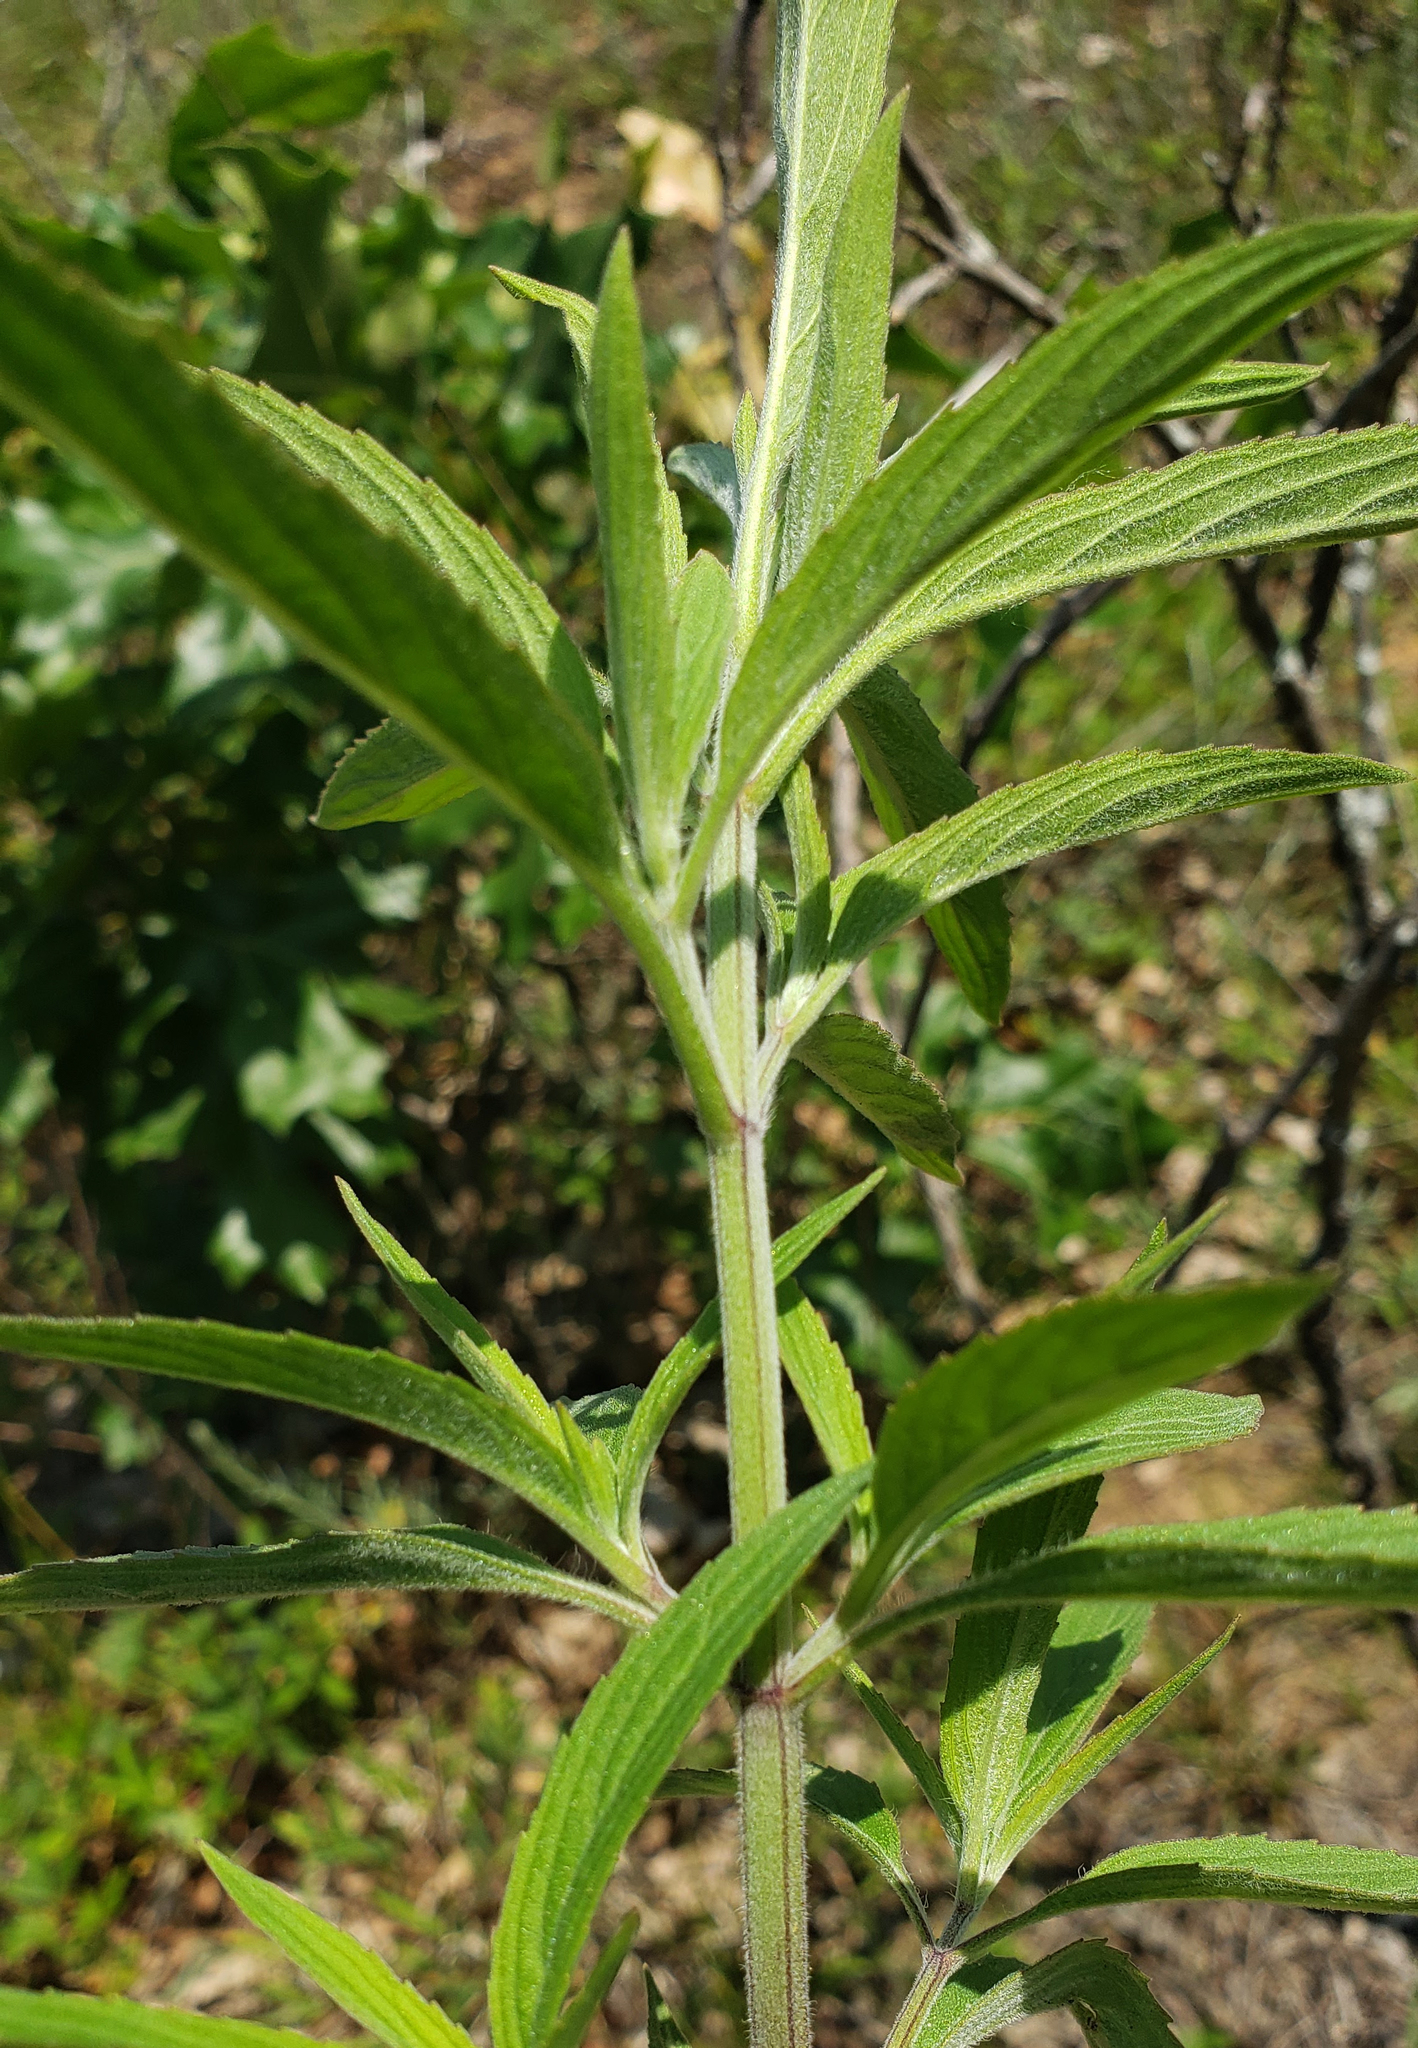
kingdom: Plantae
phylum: Tracheophyta
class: Magnoliopsida
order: Lamiales
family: Lamiaceae
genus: Monarda
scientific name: Monarda punctata
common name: Dotted monarda
